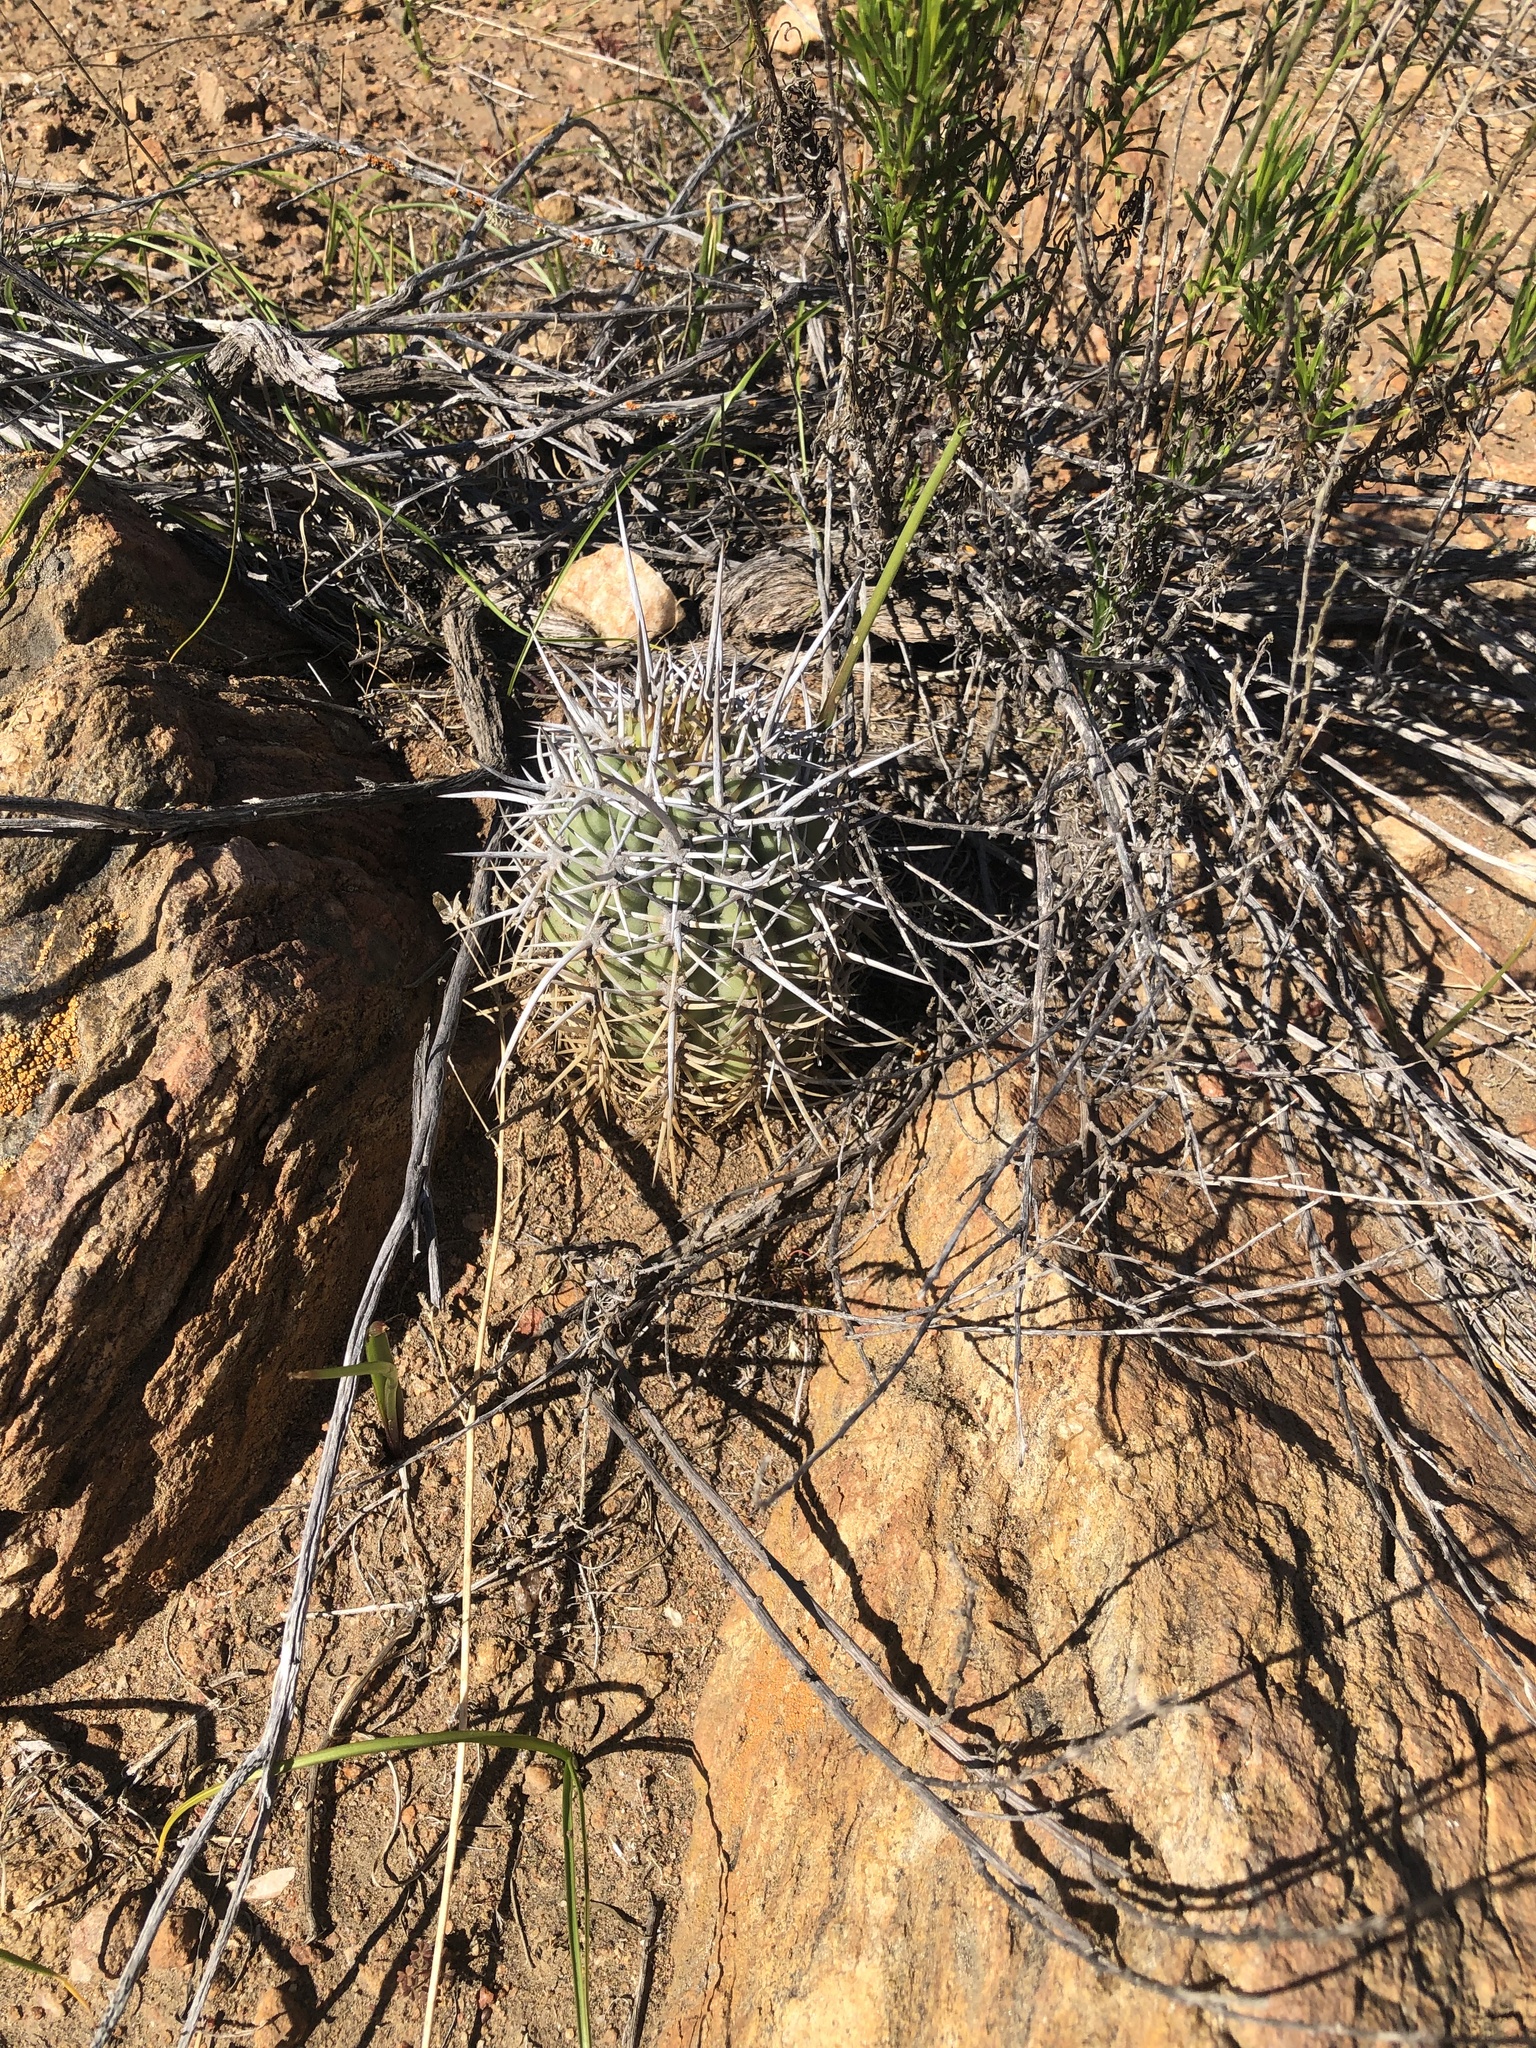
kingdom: Plantae
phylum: Tracheophyta
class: Magnoliopsida
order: Caryophyllales
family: Cactaceae
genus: Leucostele
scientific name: Leucostele skottsbergii
